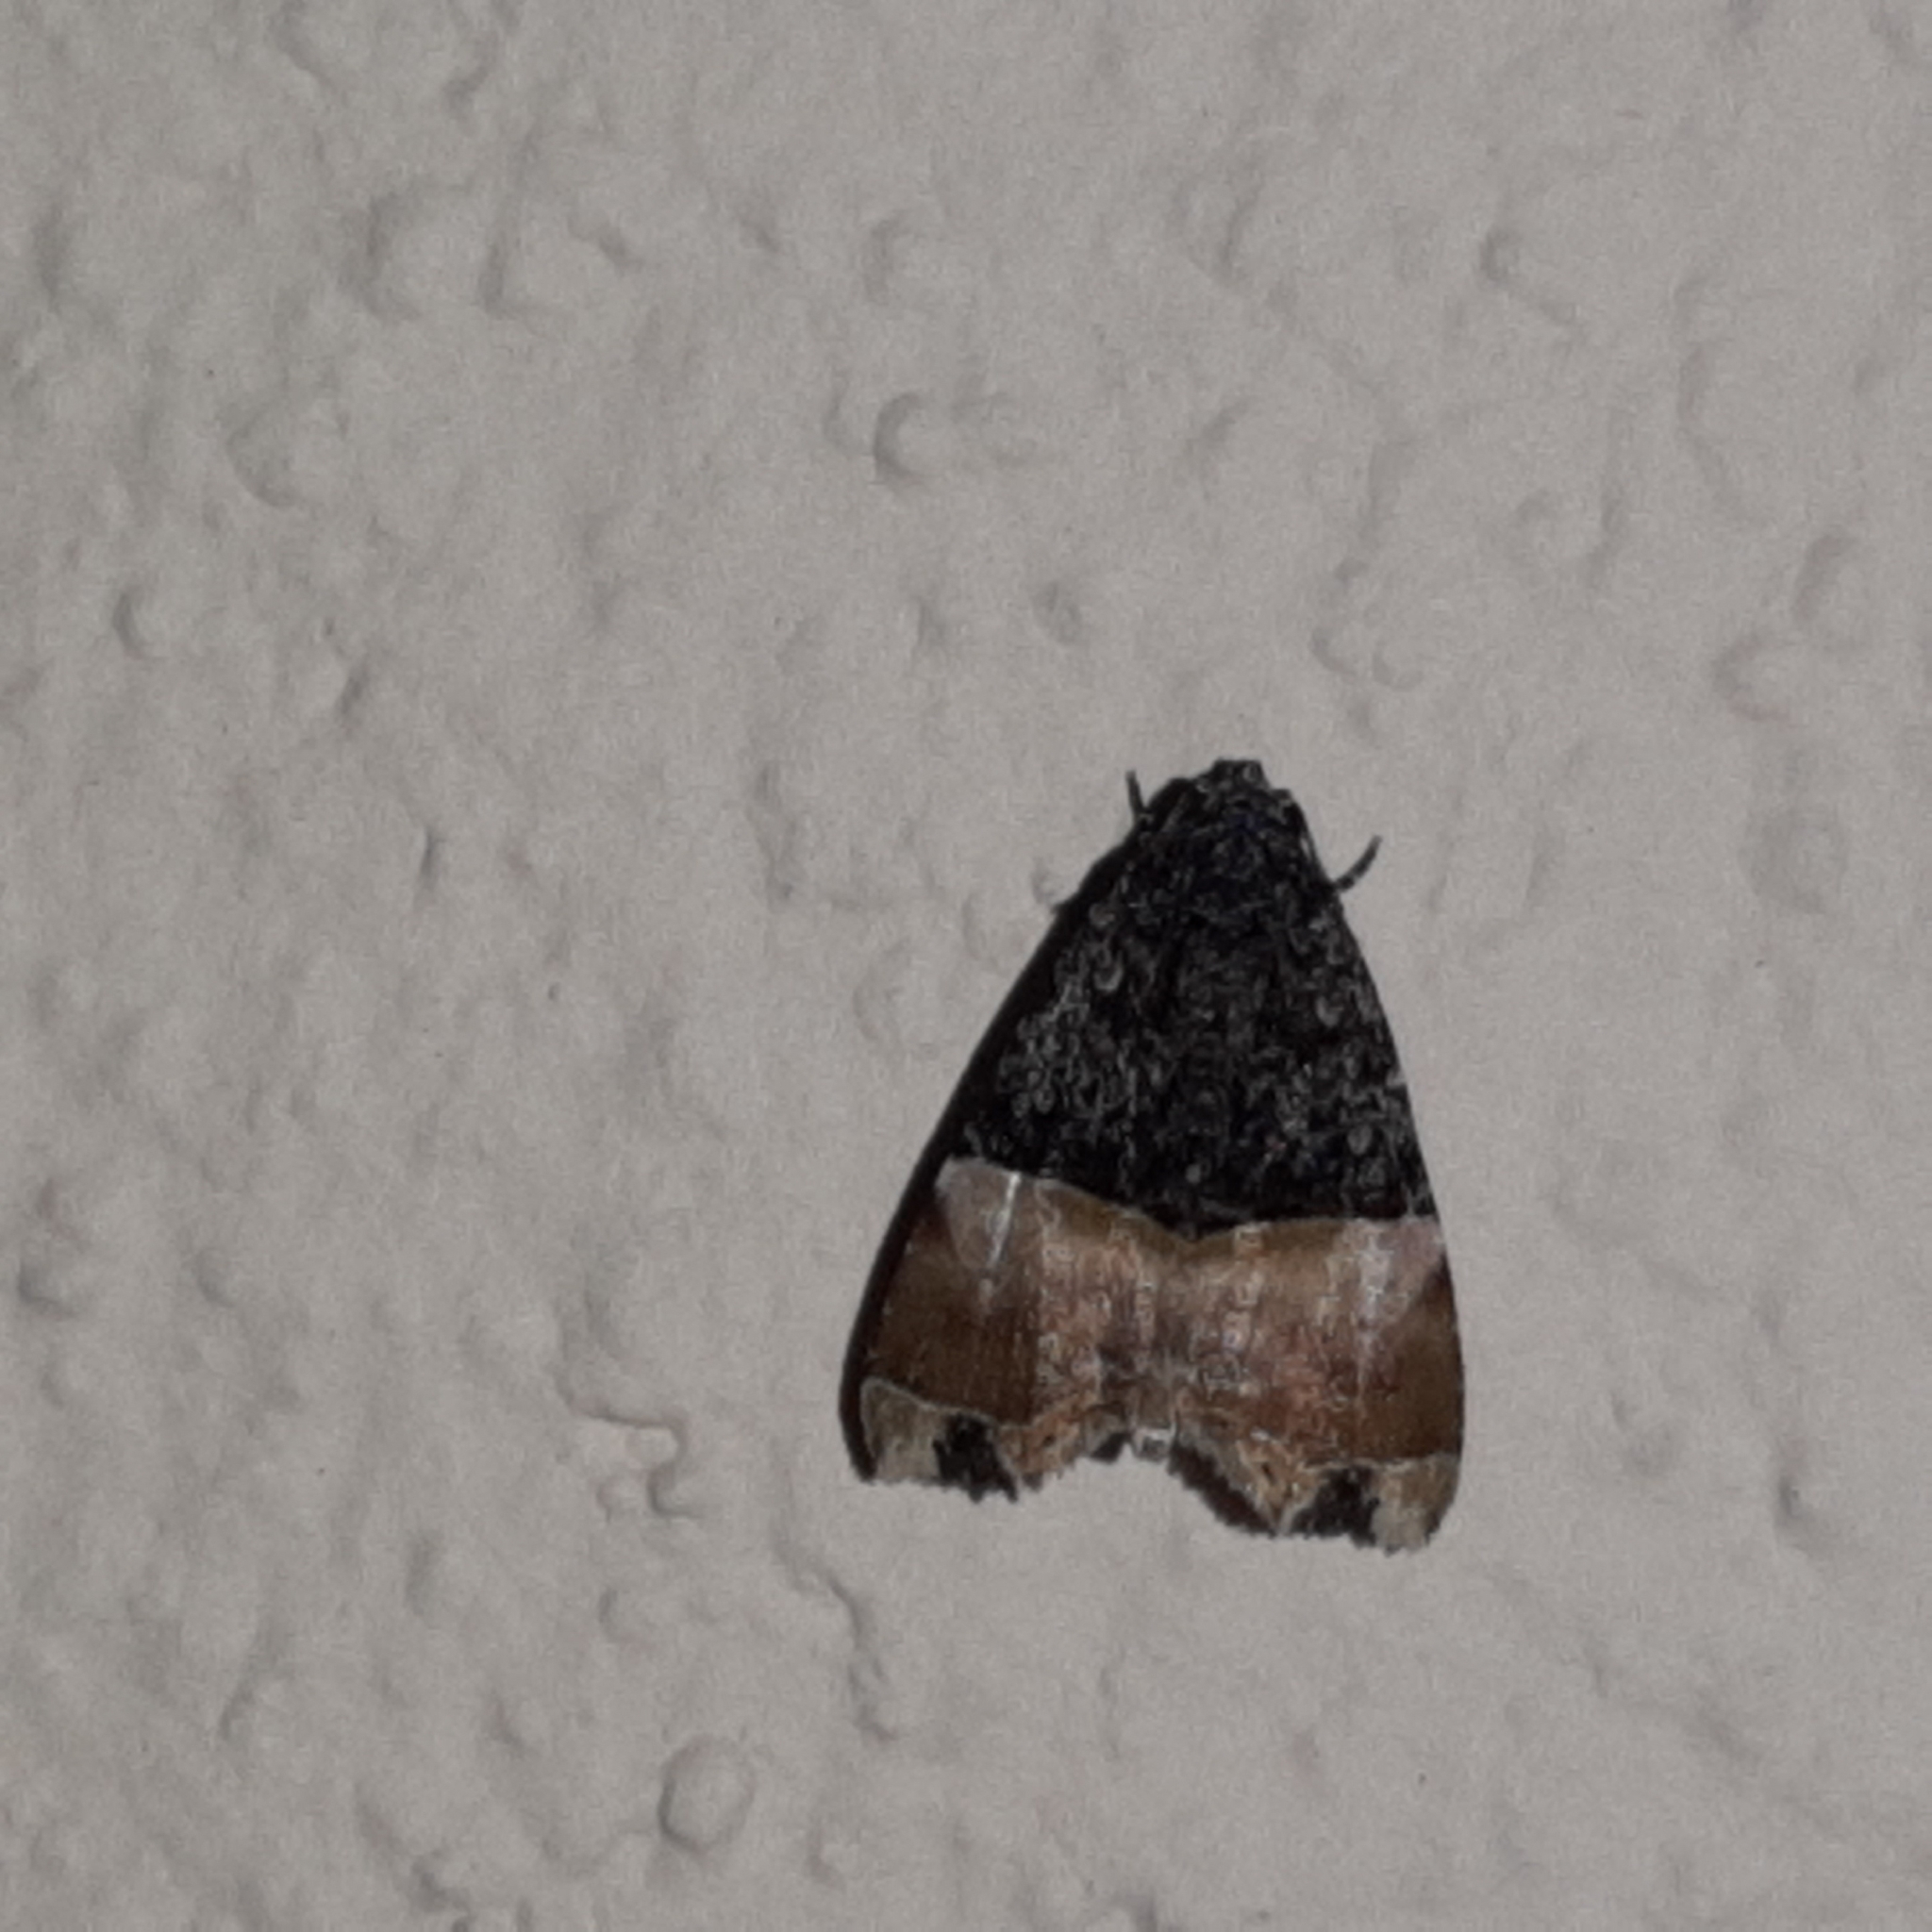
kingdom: Animalia
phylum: Arthropoda
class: Insecta
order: Lepidoptera
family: Noctuidae
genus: Lithacodia
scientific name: Lithacodia editha
